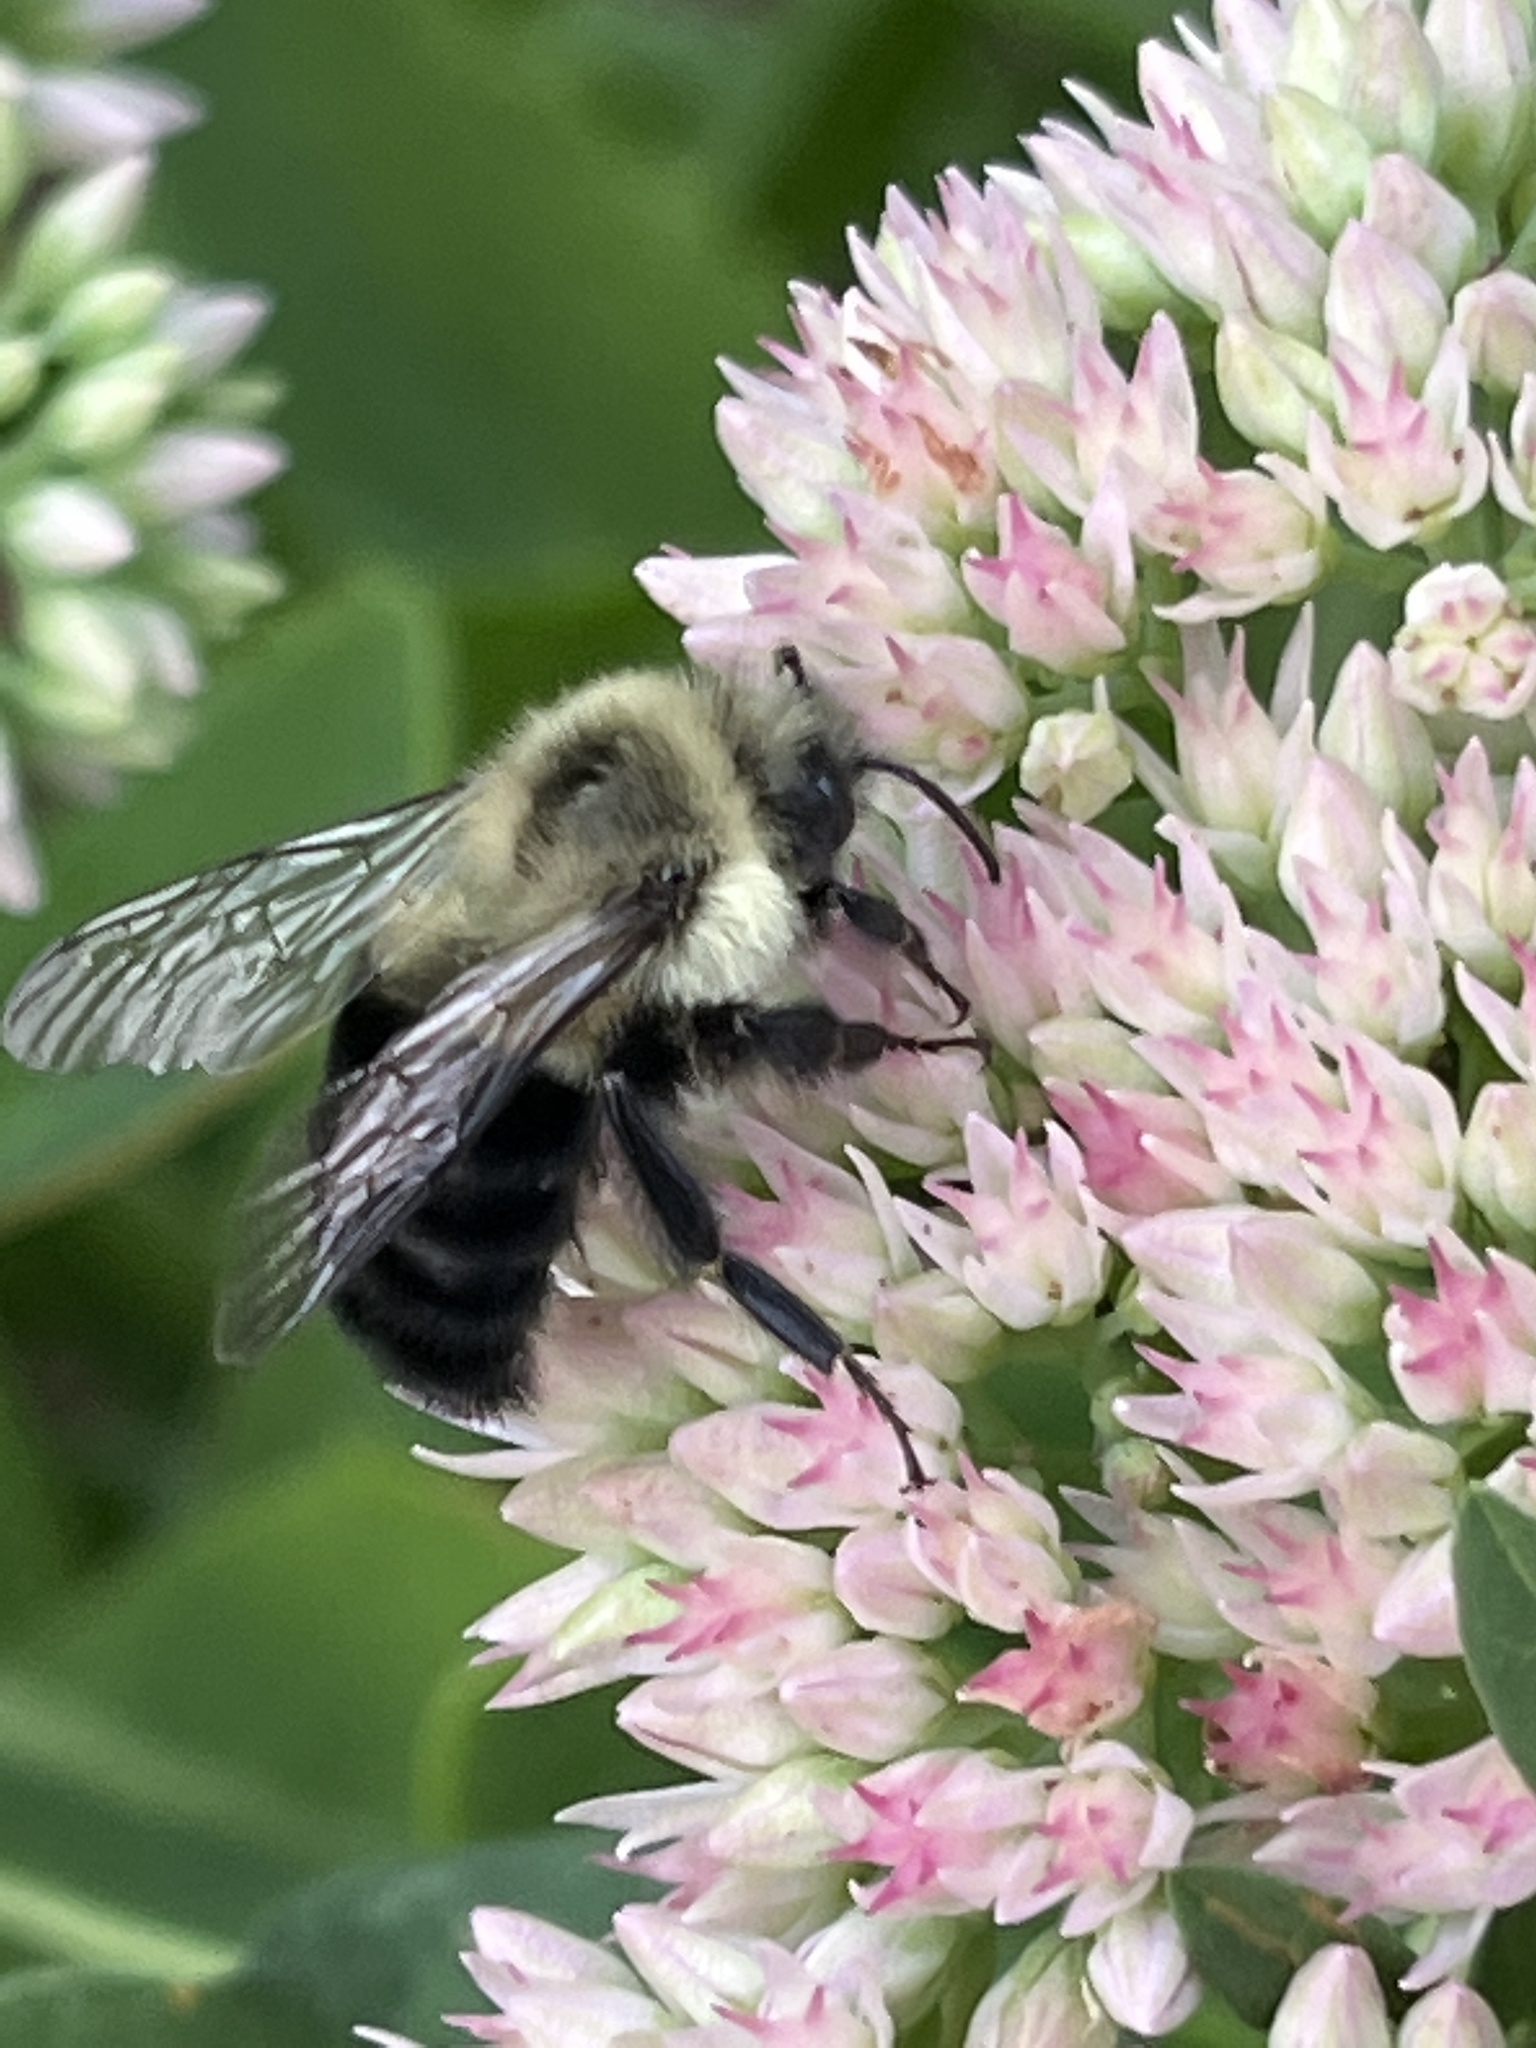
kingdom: Animalia
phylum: Arthropoda
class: Insecta
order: Hymenoptera
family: Apidae
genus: Bombus
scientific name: Bombus impatiens
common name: Common eastern bumble bee
